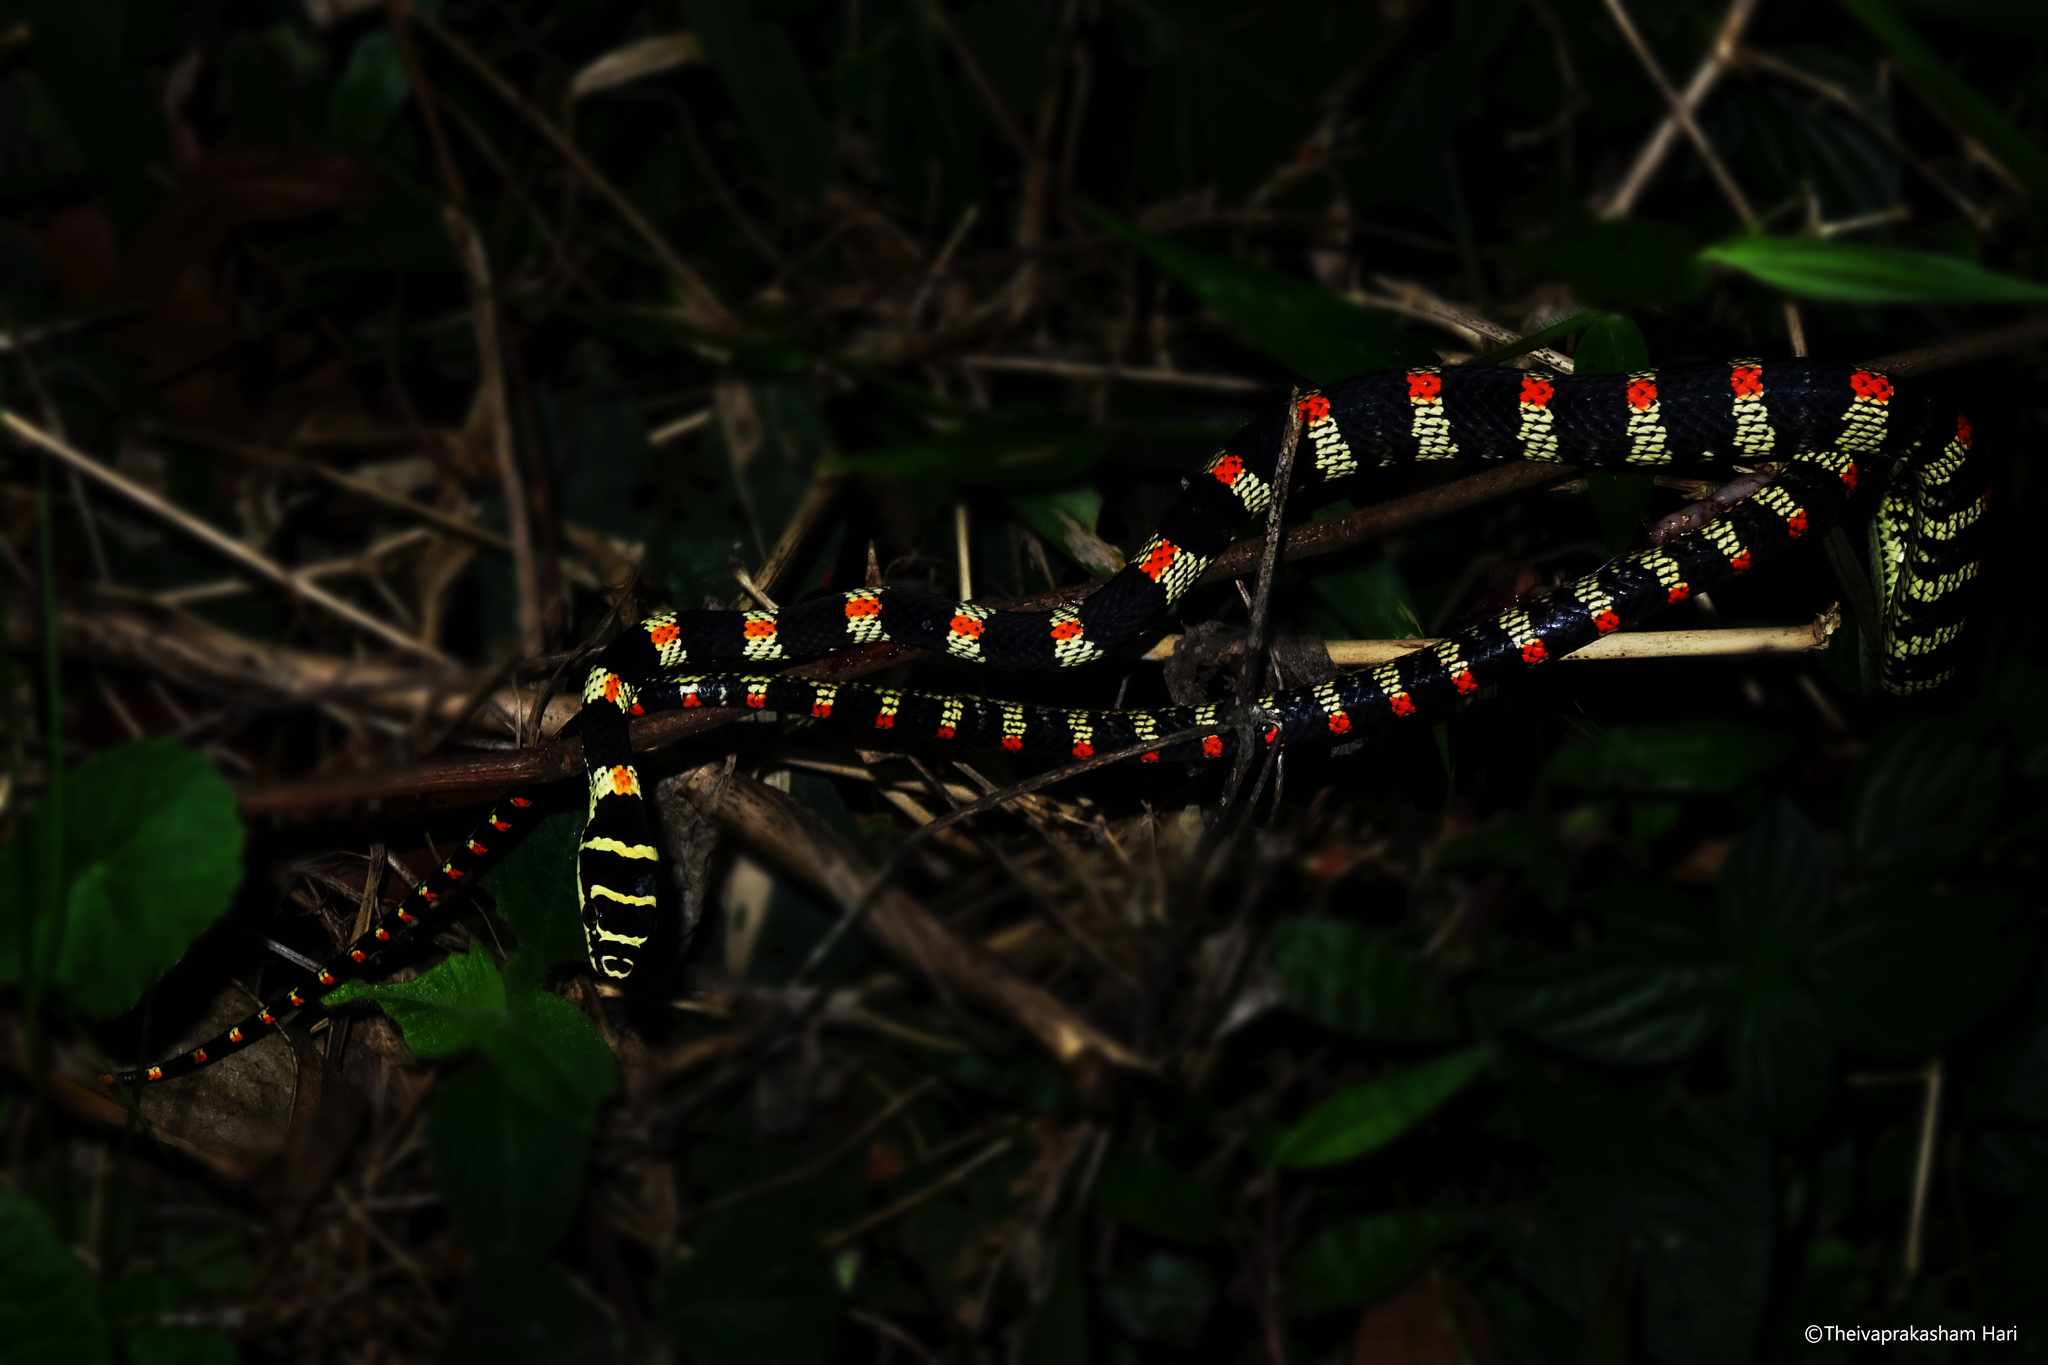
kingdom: Animalia
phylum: Chordata
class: Squamata
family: Colubridae
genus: Chrysopelea
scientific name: Chrysopelea ornata
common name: Golden flying snake
